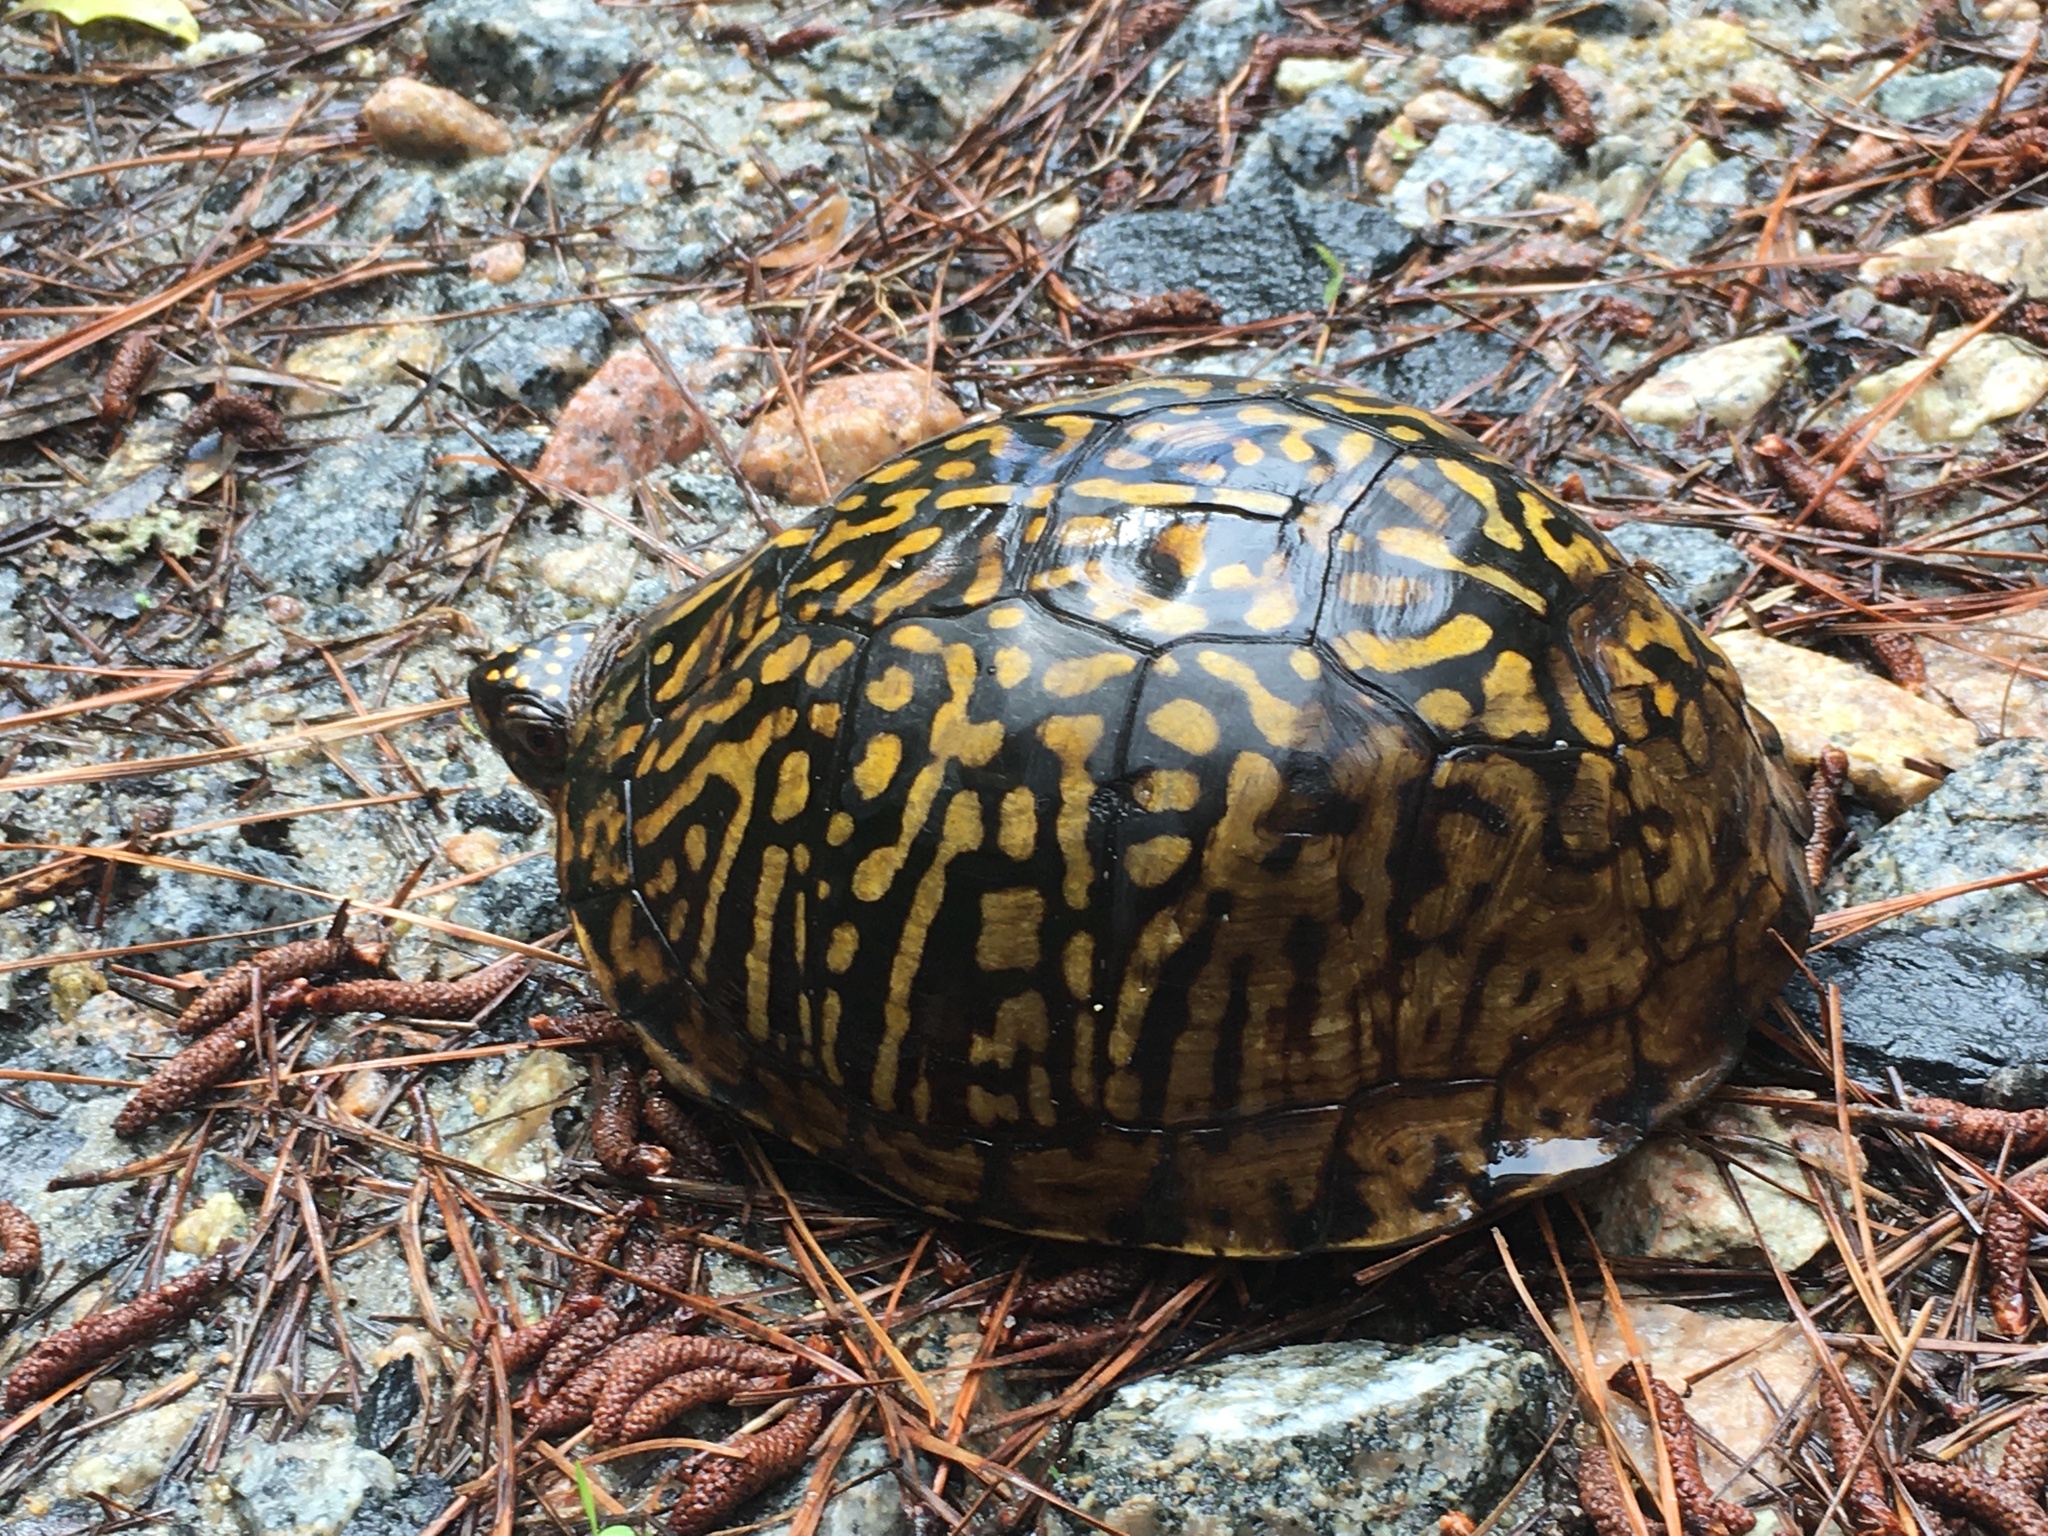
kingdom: Animalia
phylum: Chordata
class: Testudines
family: Emydidae
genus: Terrapene
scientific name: Terrapene carolina
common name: Common box turtle
